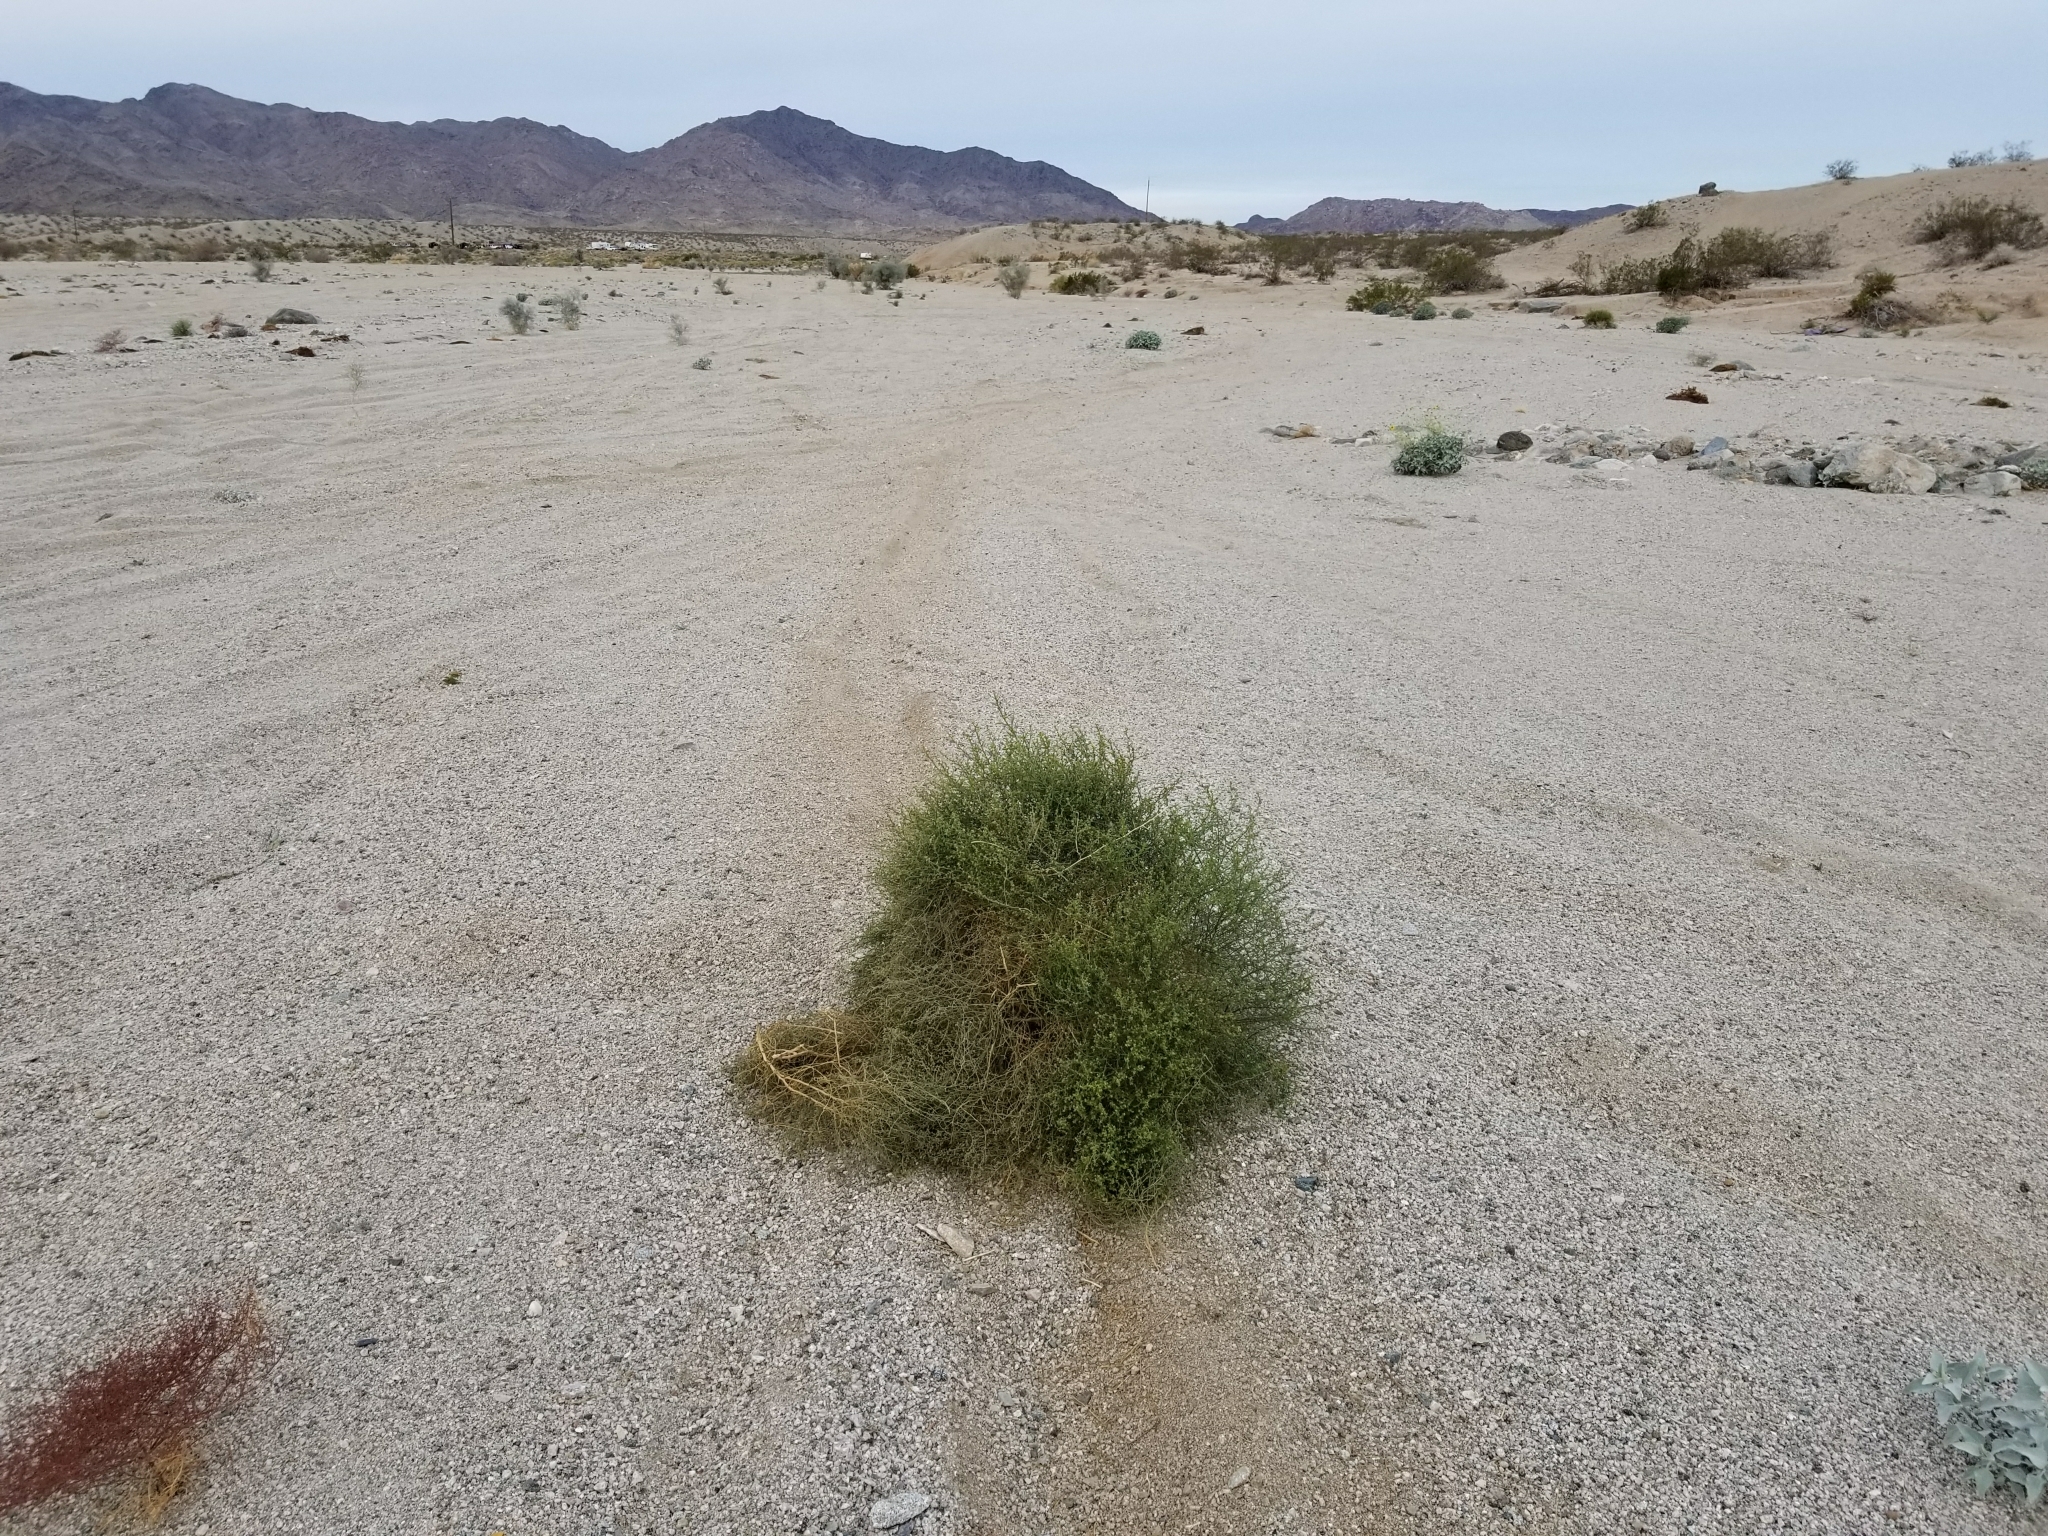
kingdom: Plantae
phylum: Tracheophyta
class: Magnoliopsida
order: Asterales
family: Asteraceae
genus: Ambrosia
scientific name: Ambrosia salsola
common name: Burrobrush
